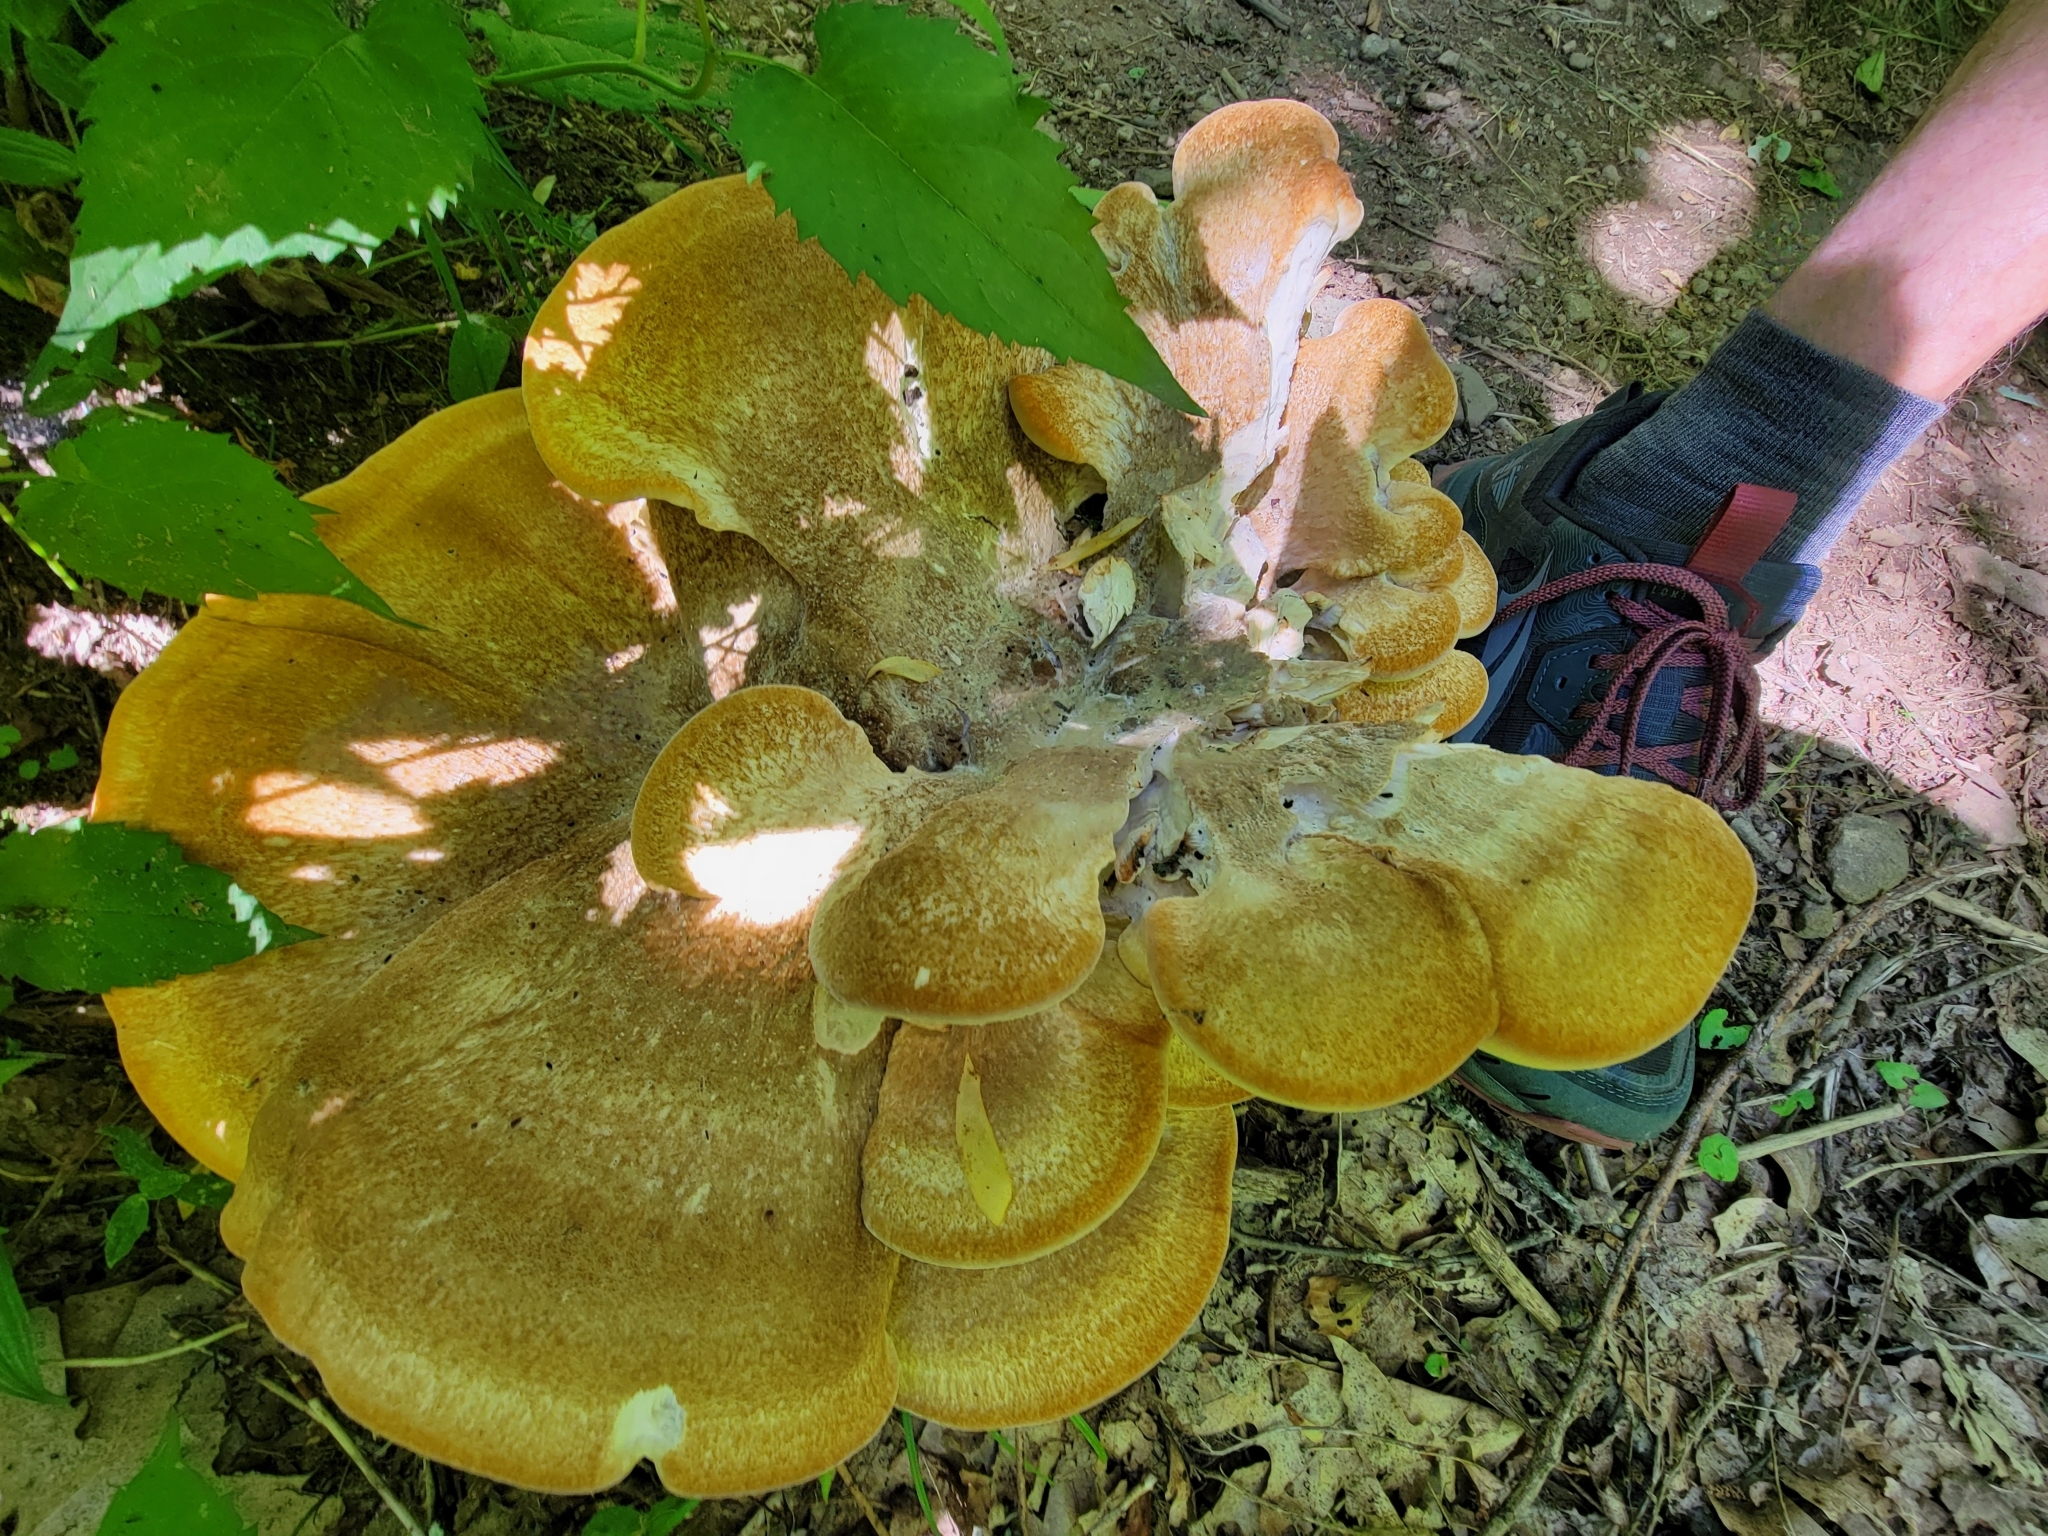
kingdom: Fungi
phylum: Basidiomycota
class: Agaricomycetes
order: Russulales
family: Bondarzewiaceae
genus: Bondarzewia
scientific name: Bondarzewia berkeleyi
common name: Berkeley's polypore
